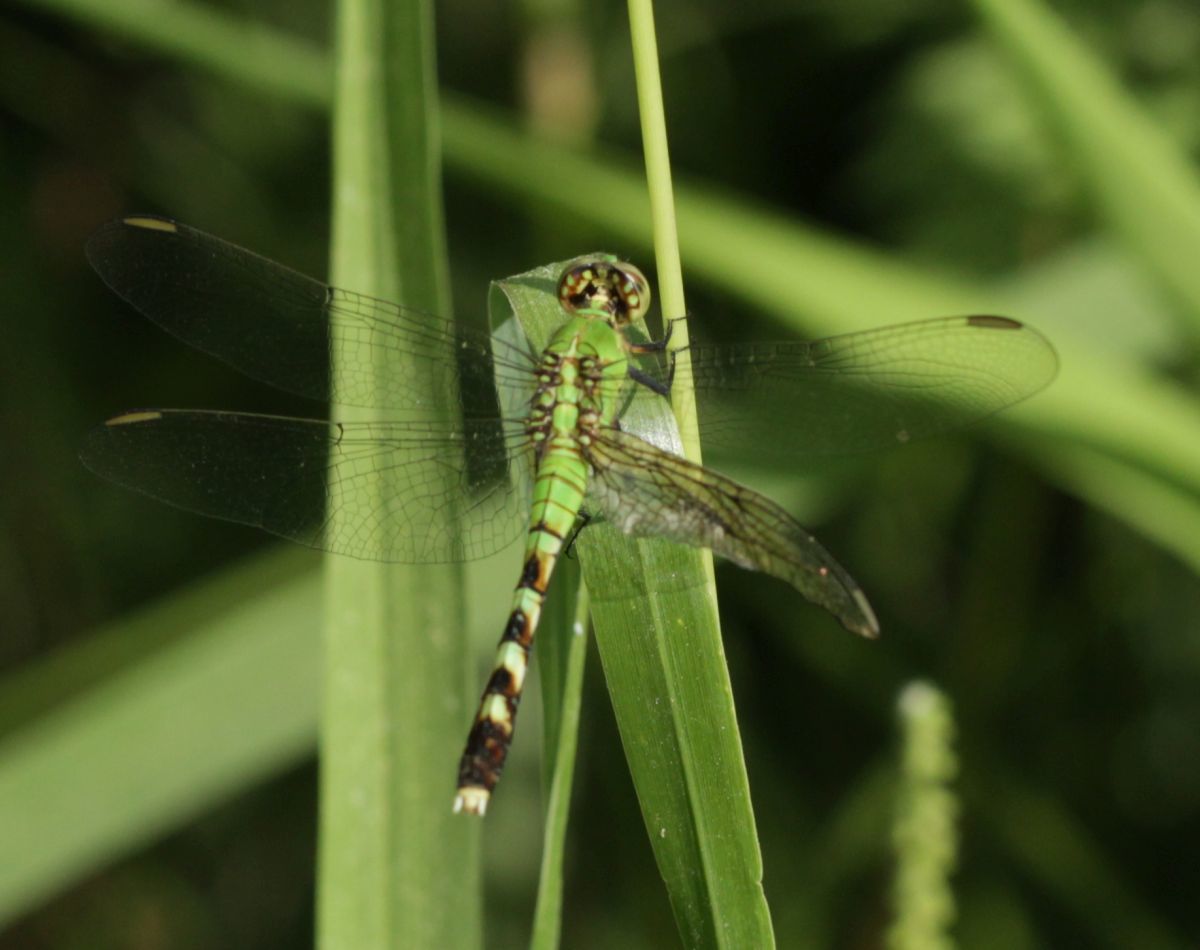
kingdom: Animalia
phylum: Arthropoda
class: Insecta
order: Odonata
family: Libellulidae
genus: Erythemis
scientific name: Erythemis simplicicollis
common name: Eastern pondhawk
